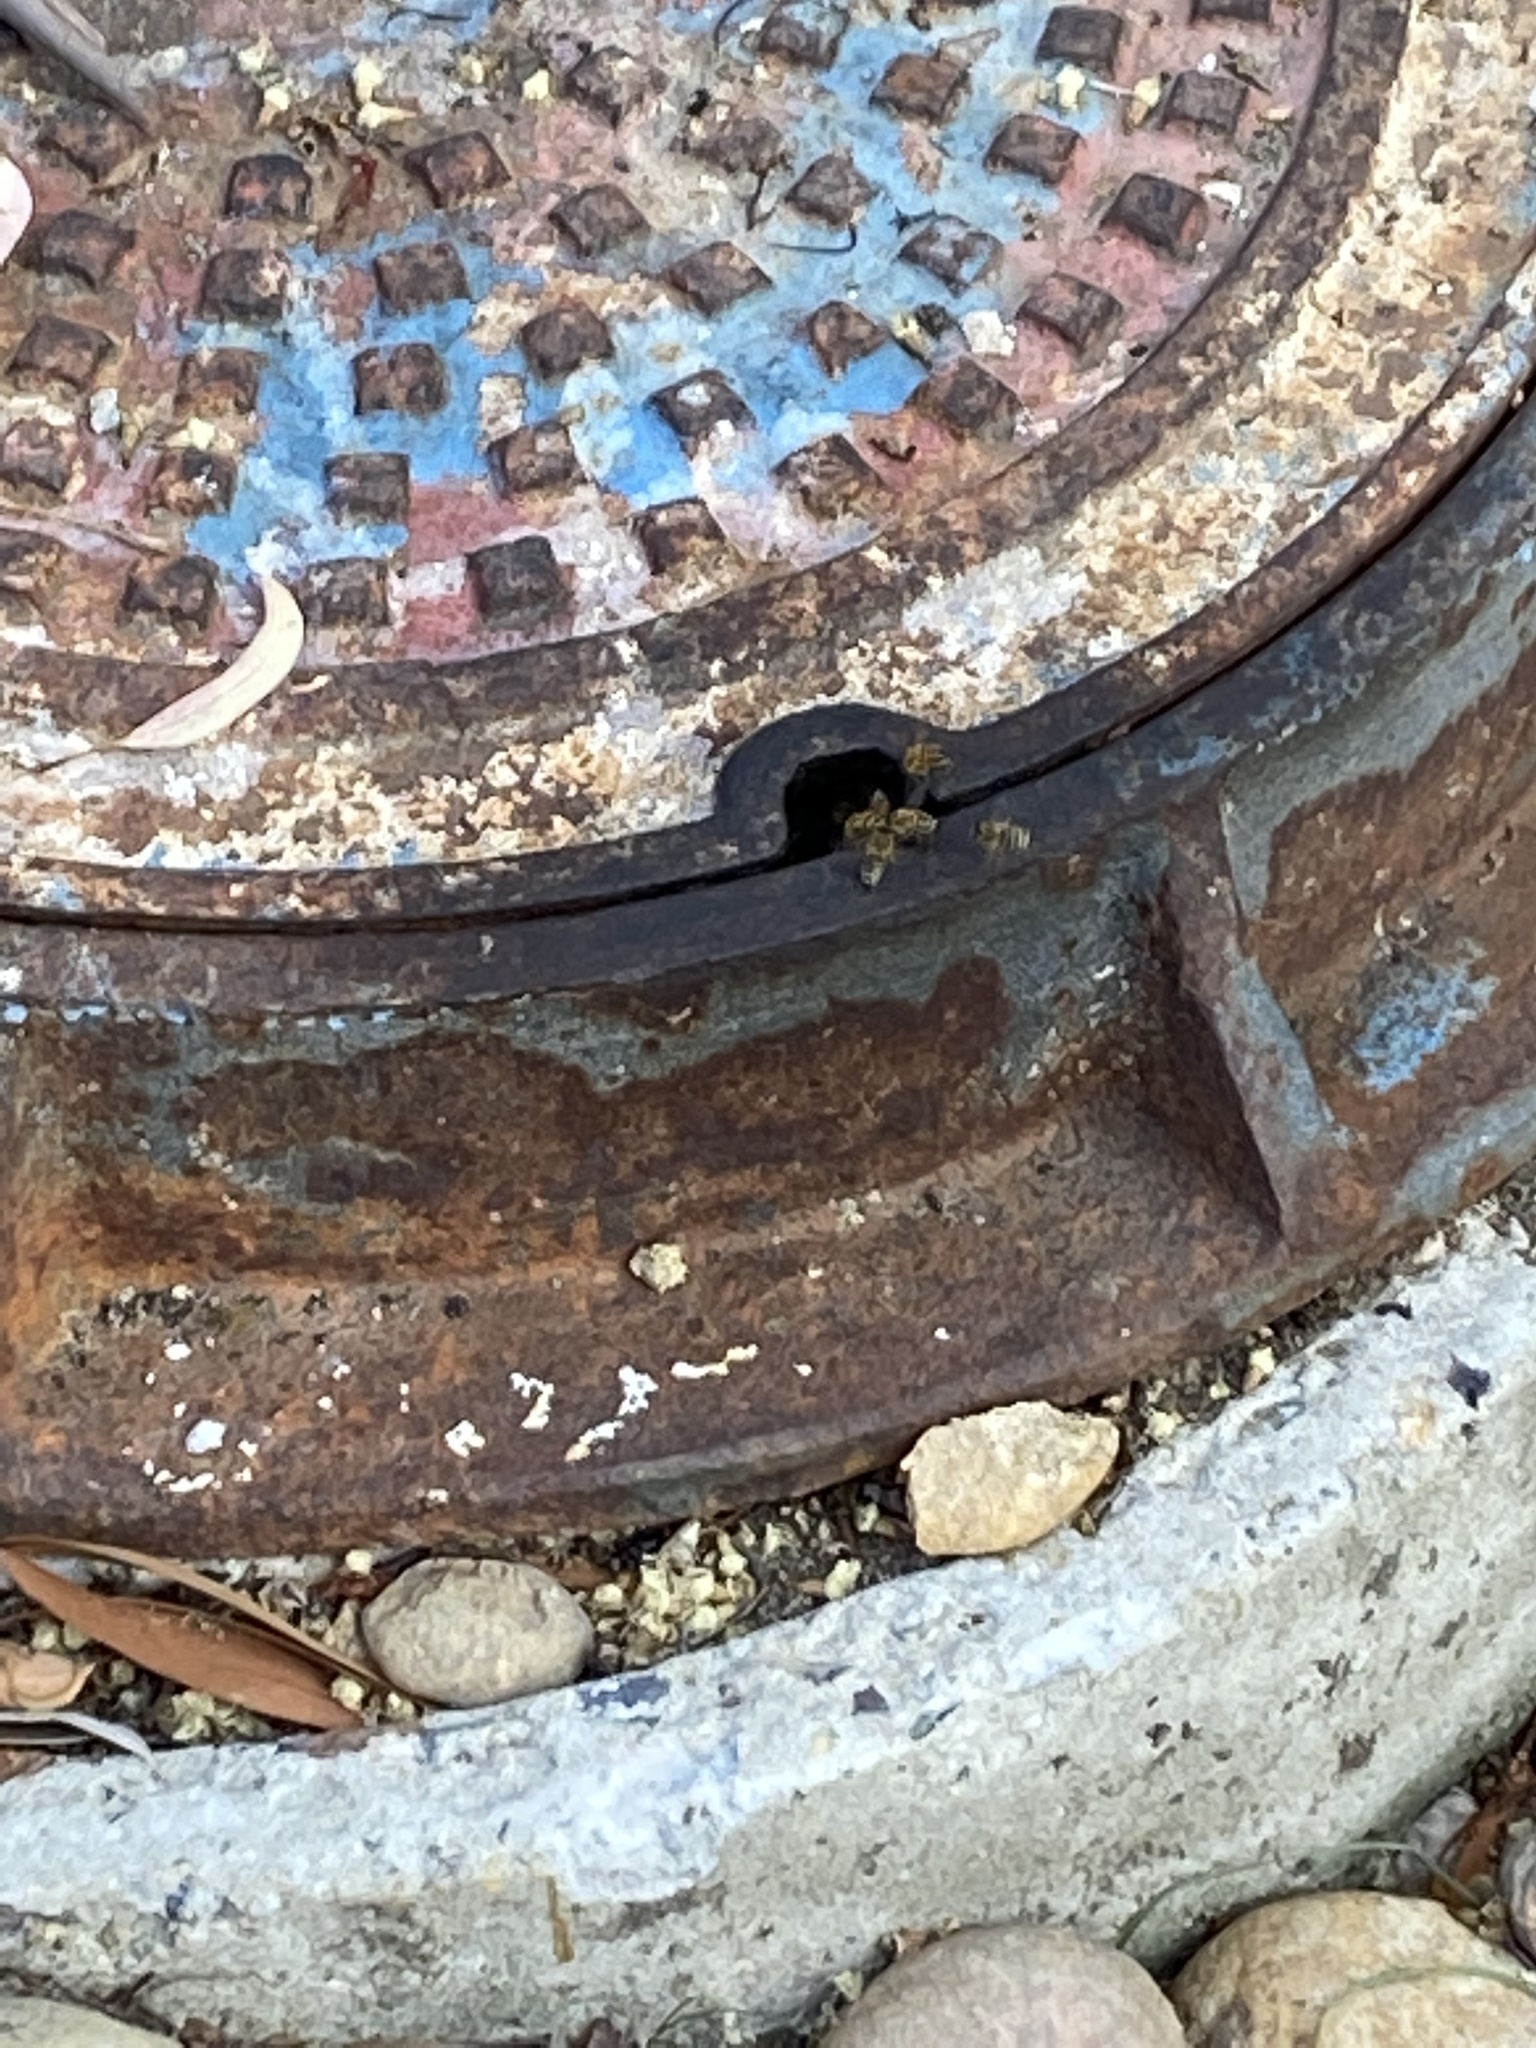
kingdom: Animalia
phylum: Arthropoda
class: Insecta
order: Hymenoptera
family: Apidae
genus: Apis
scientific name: Apis mellifera
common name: Honey bee
